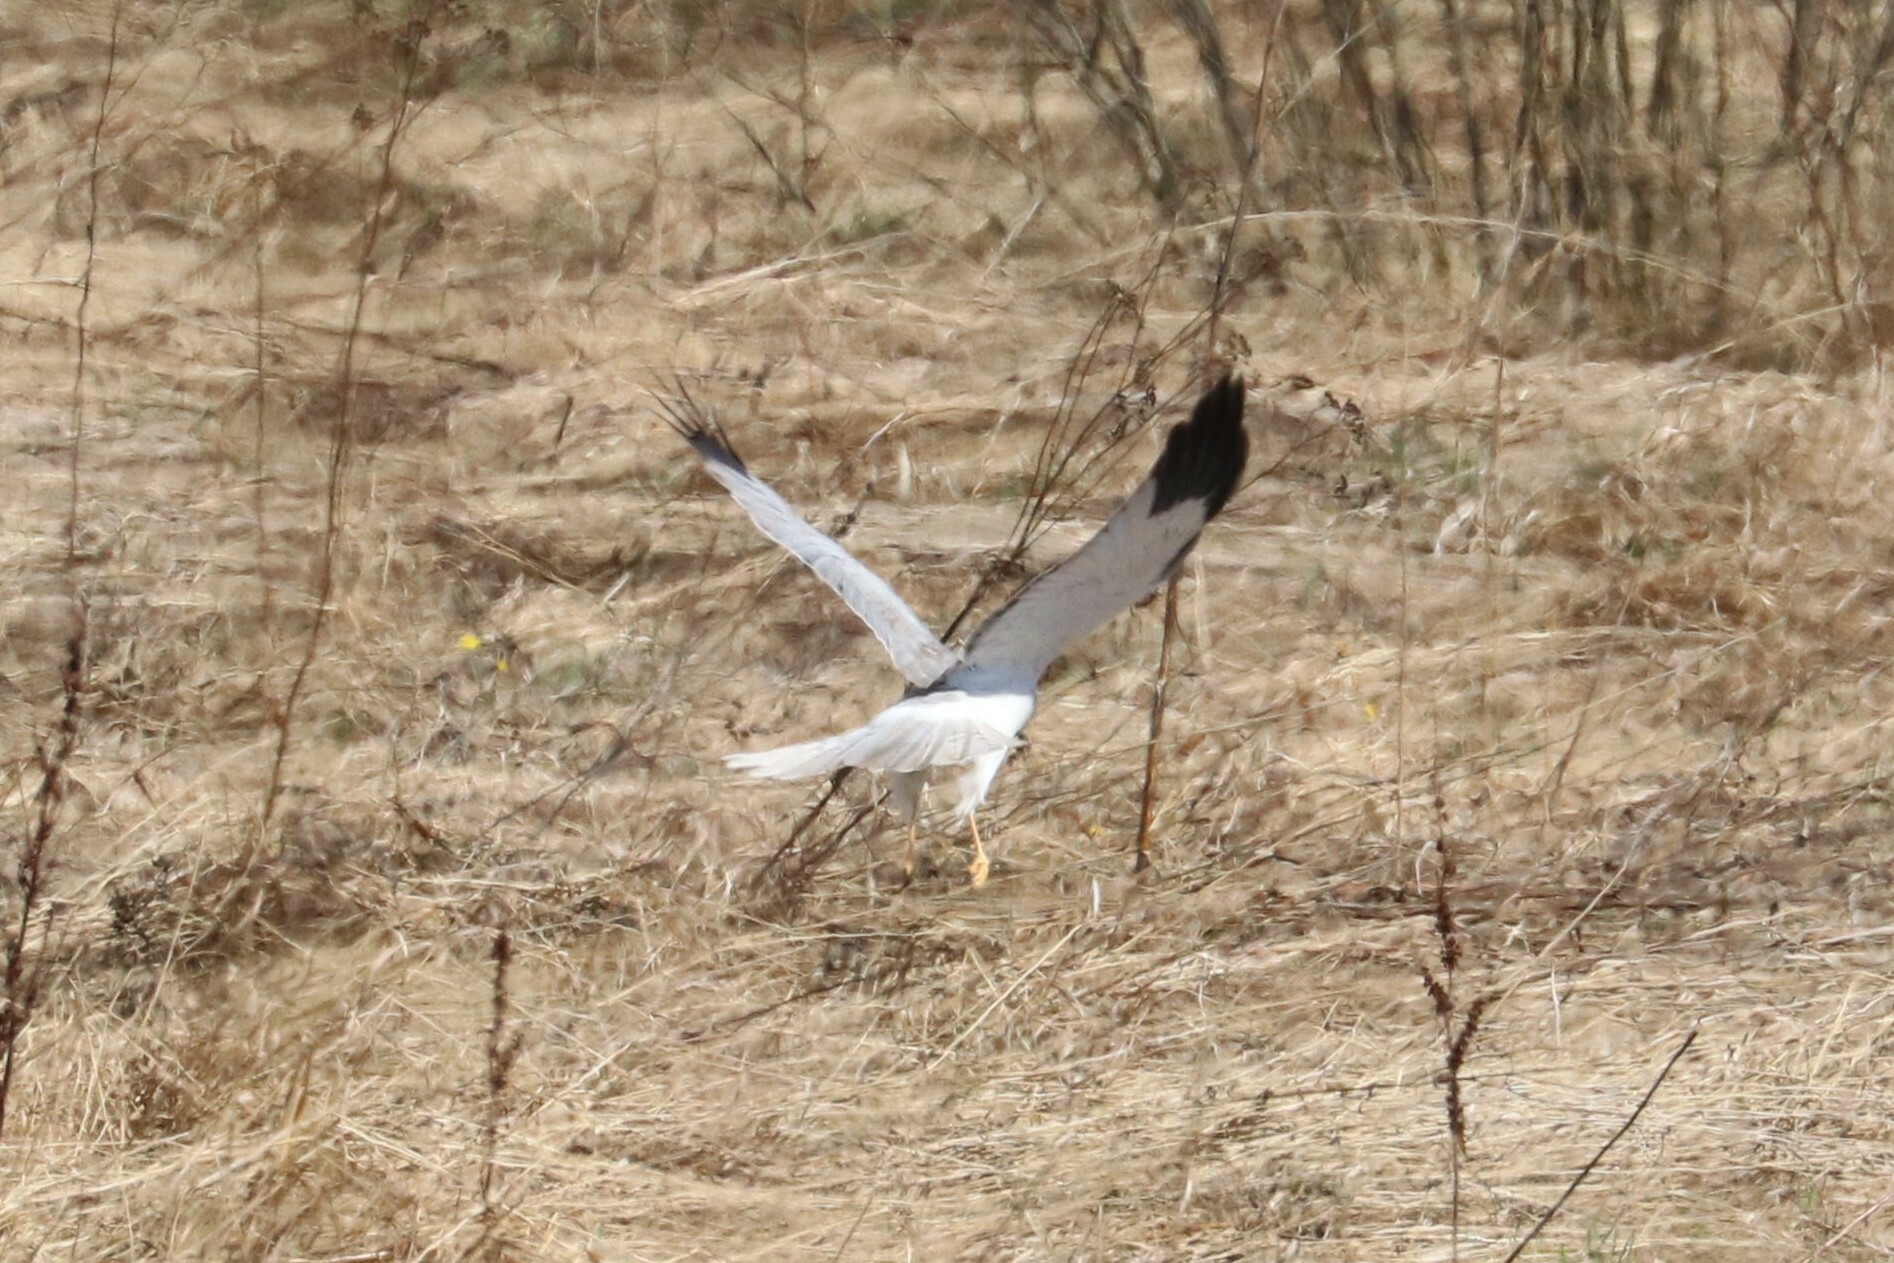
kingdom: Animalia
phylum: Chordata
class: Aves
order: Accipitriformes
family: Accipitridae
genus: Circus
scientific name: Circus cyaneus
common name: Hen harrier
